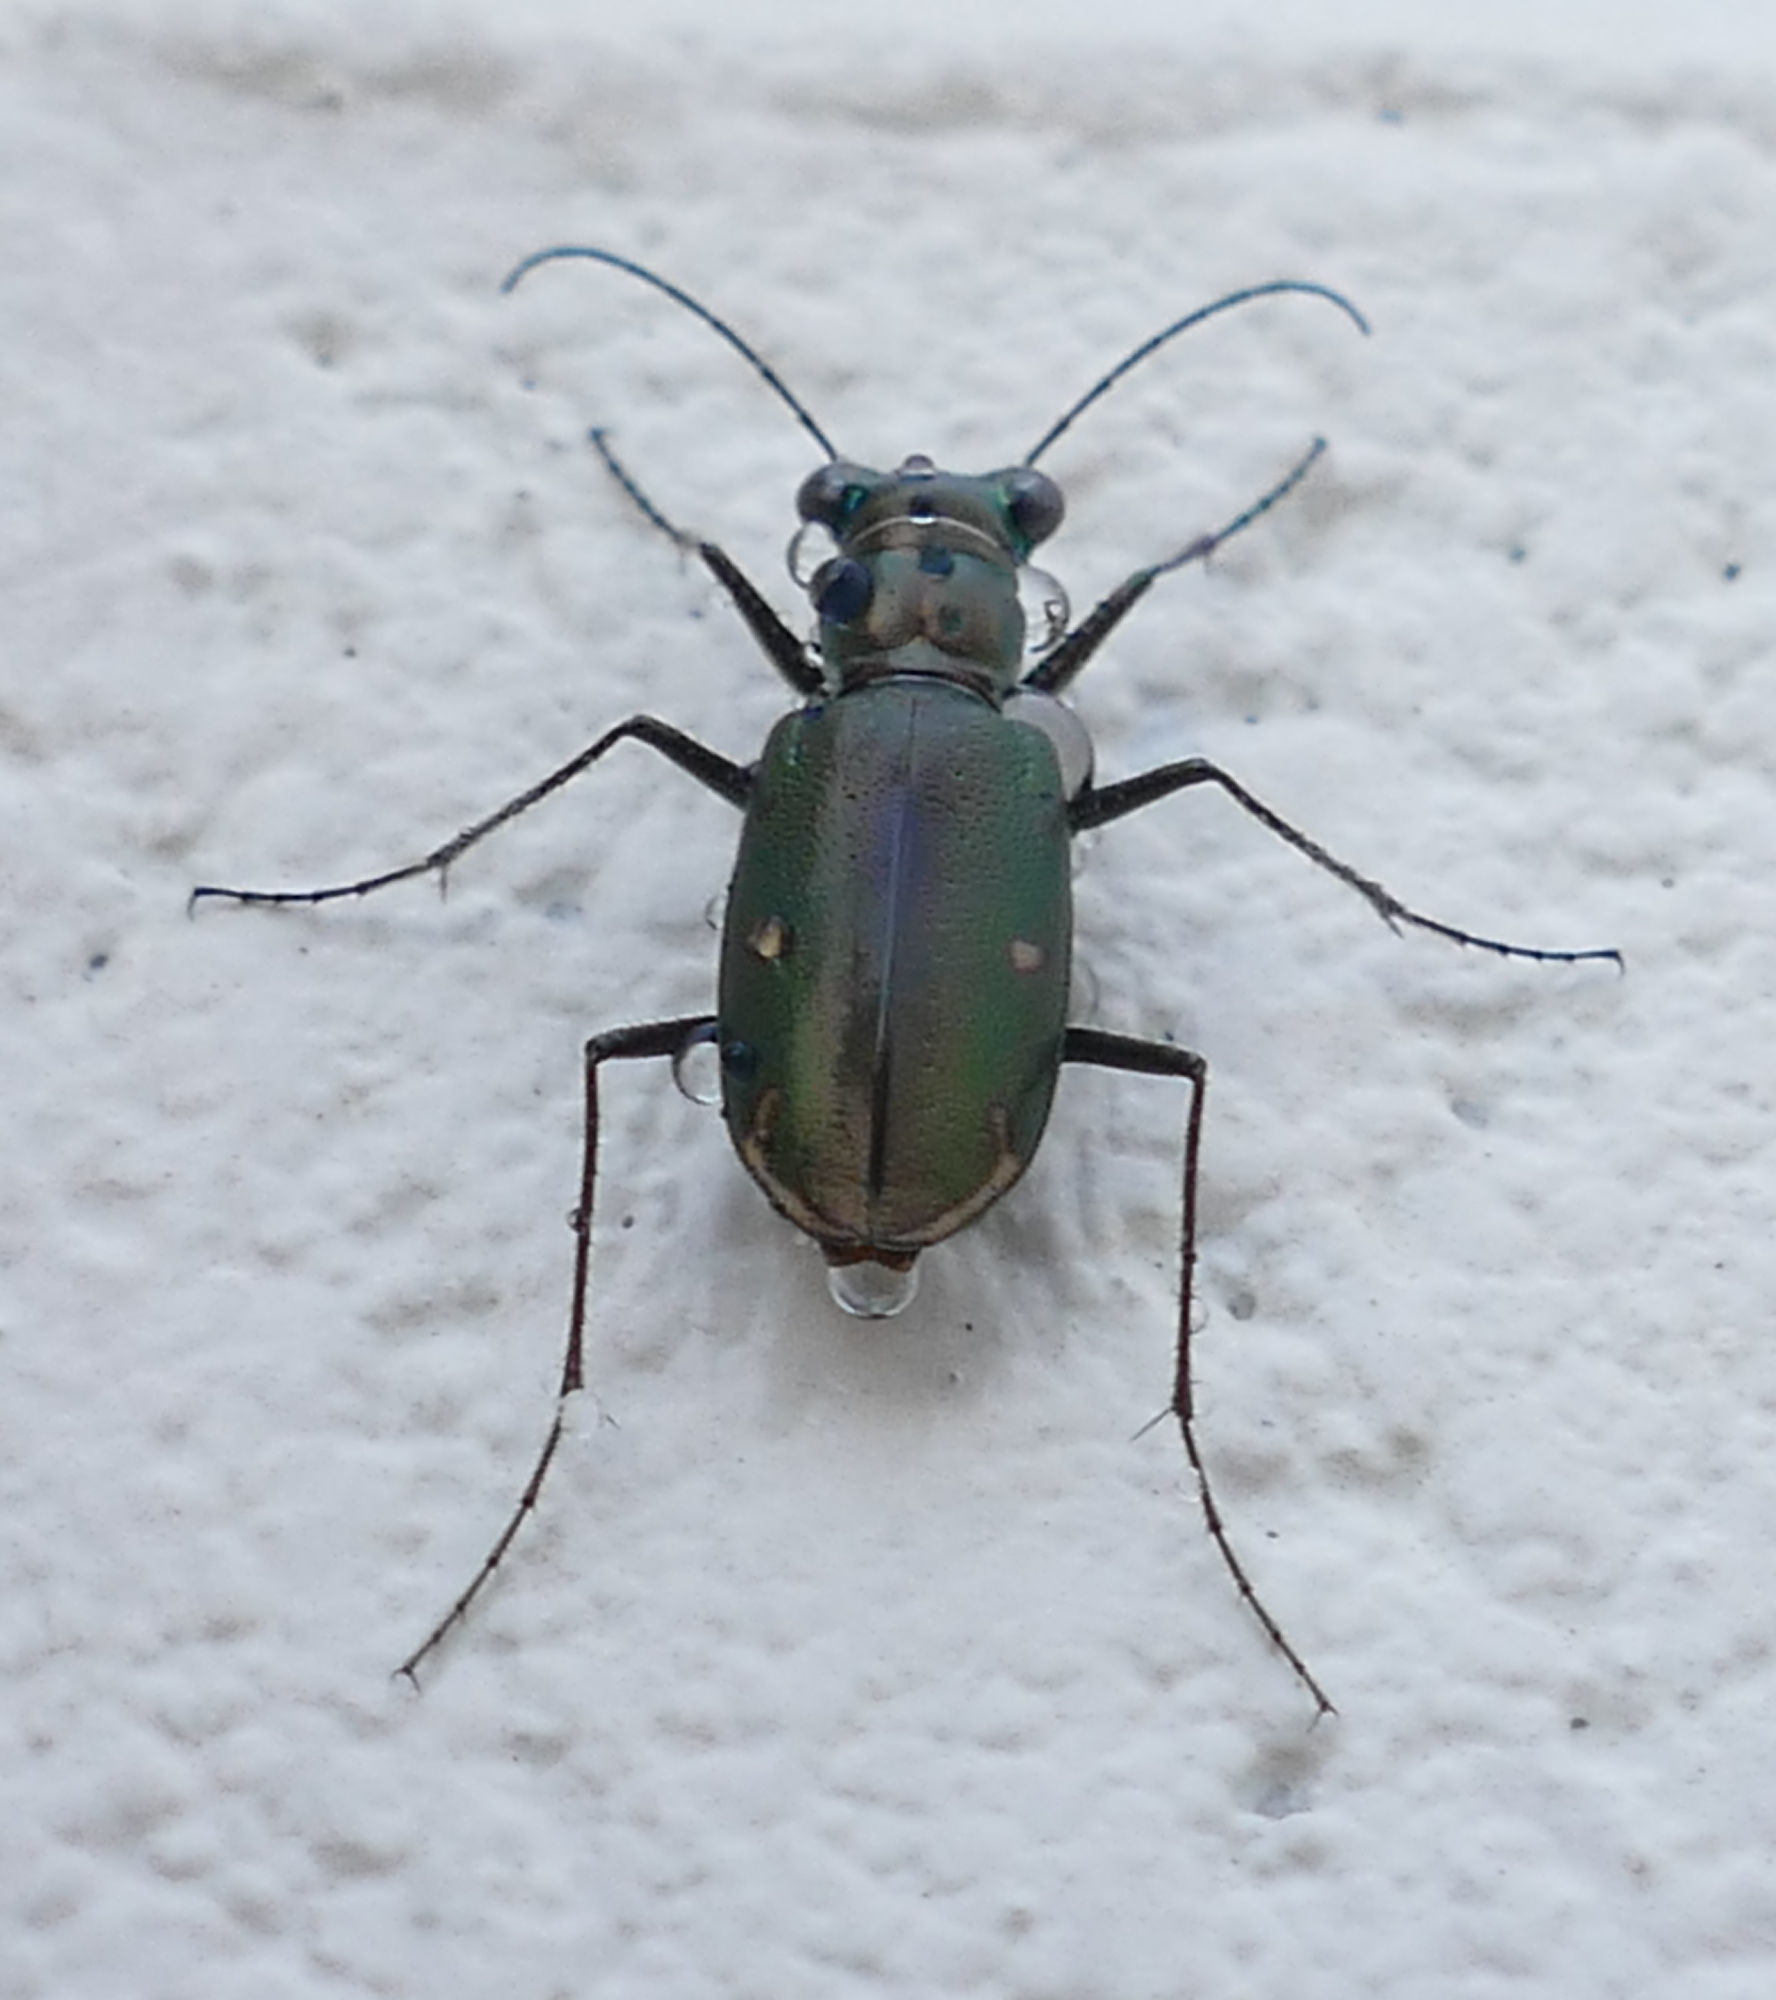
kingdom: Animalia
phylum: Arthropoda
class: Insecta
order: Coleoptera
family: Carabidae
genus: Eunota
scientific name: Eunota severa
